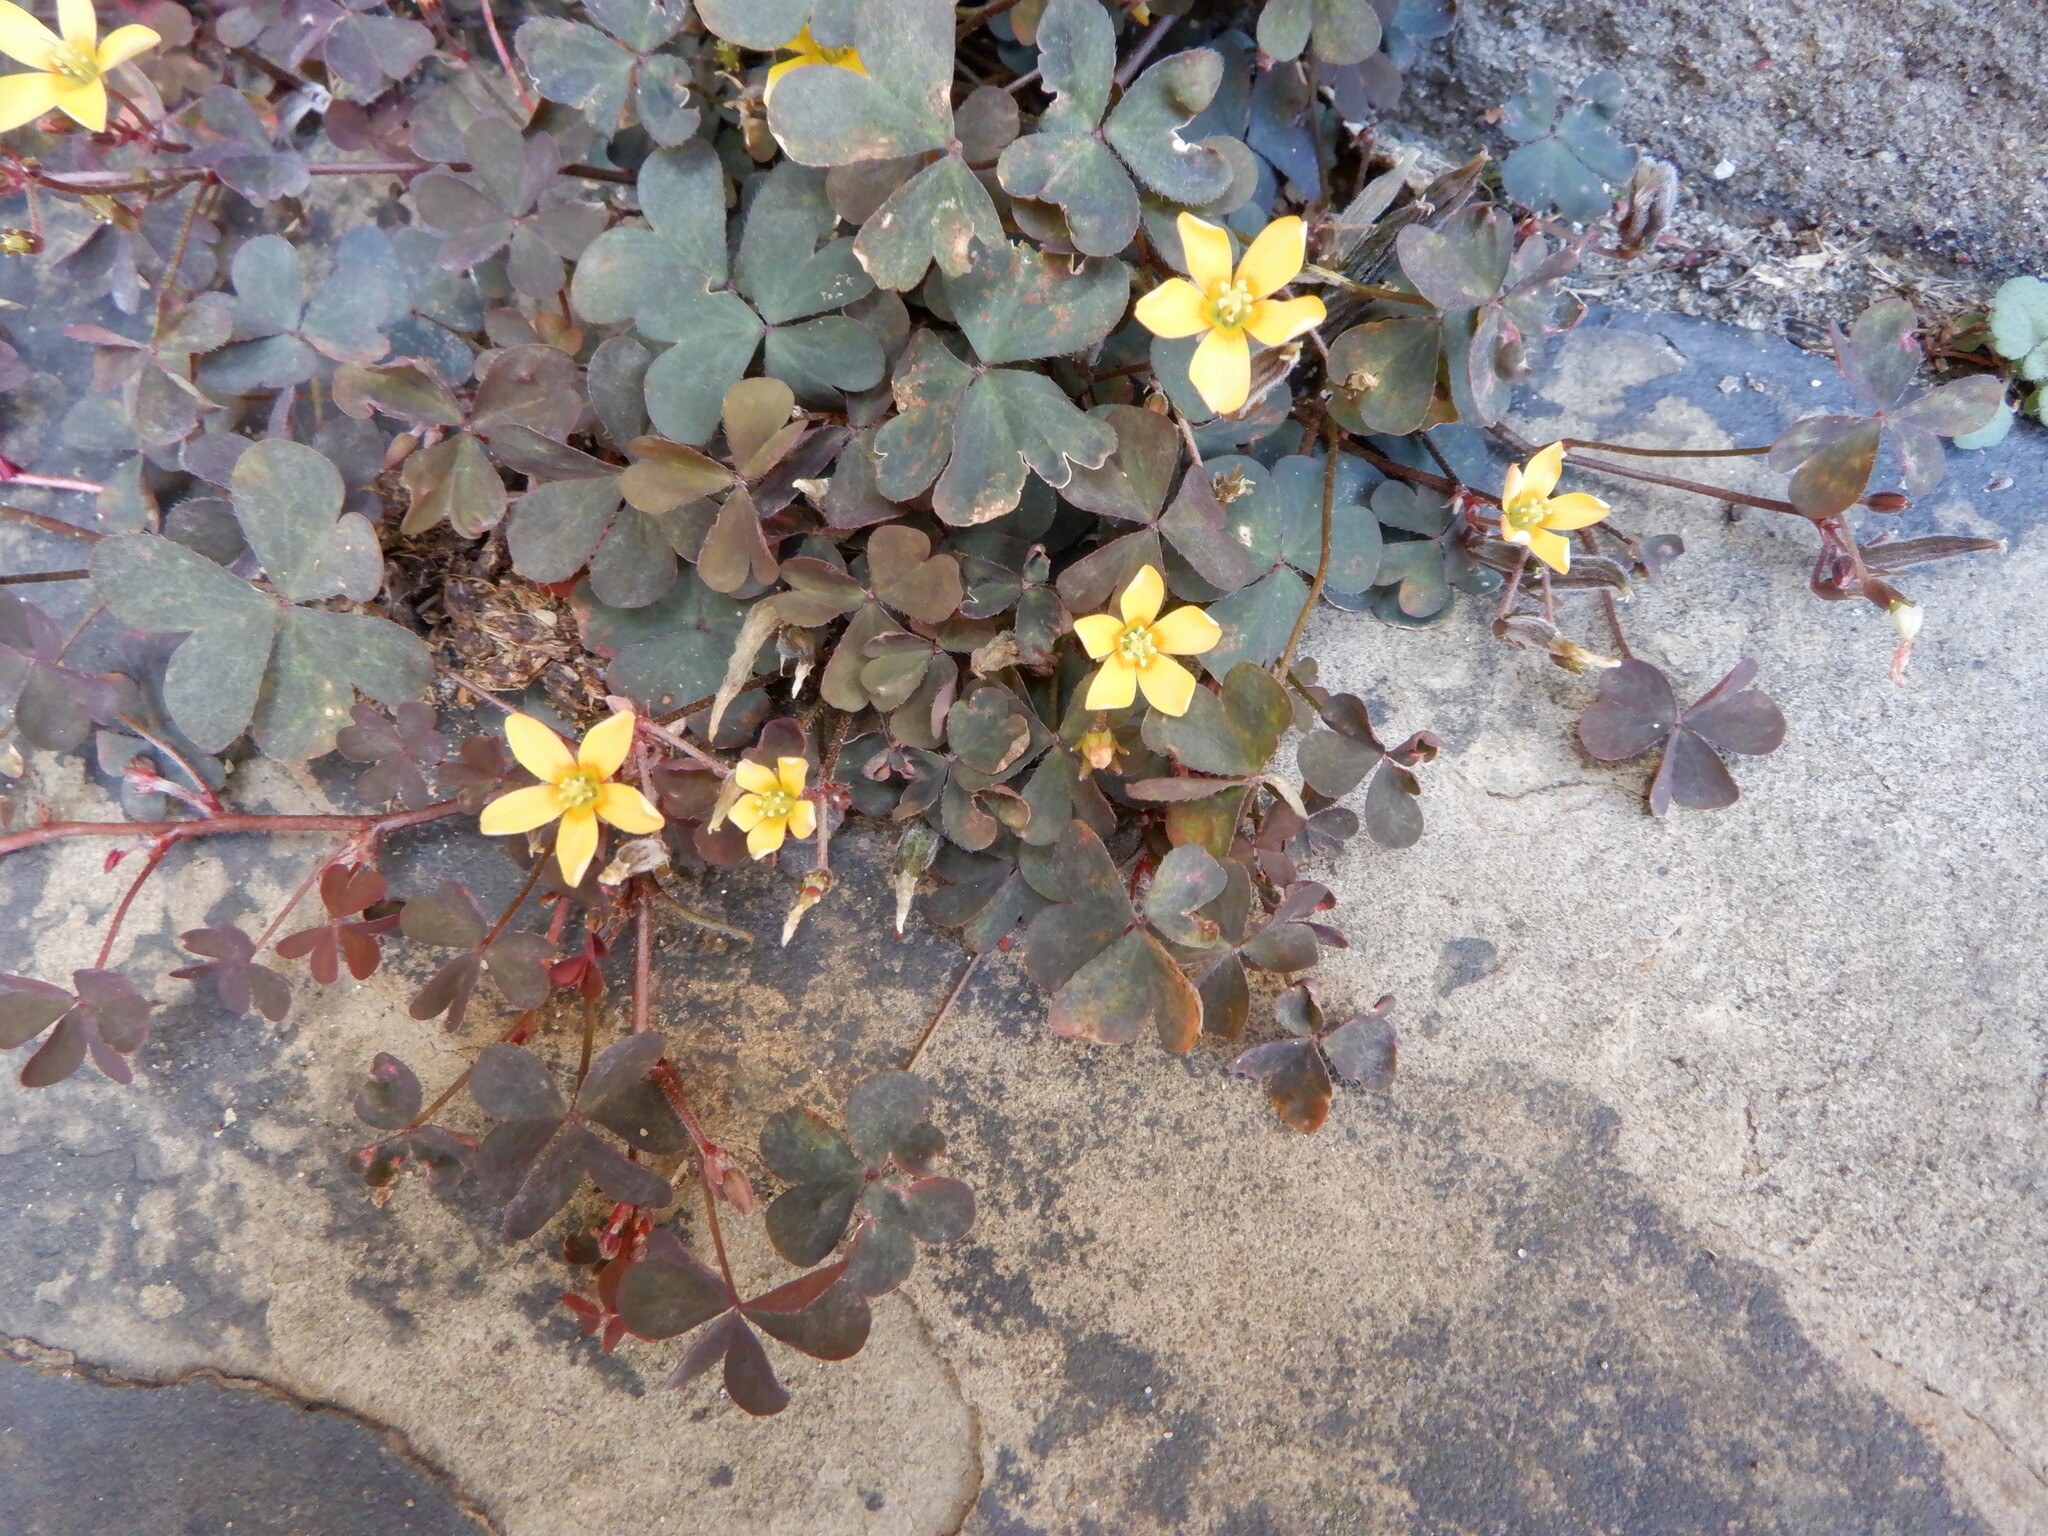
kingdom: Plantae
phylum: Tracheophyta
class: Magnoliopsida
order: Oxalidales
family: Oxalidaceae
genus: Oxalis
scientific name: Oxalis corniculata
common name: Procumbent yellow-sorrel
